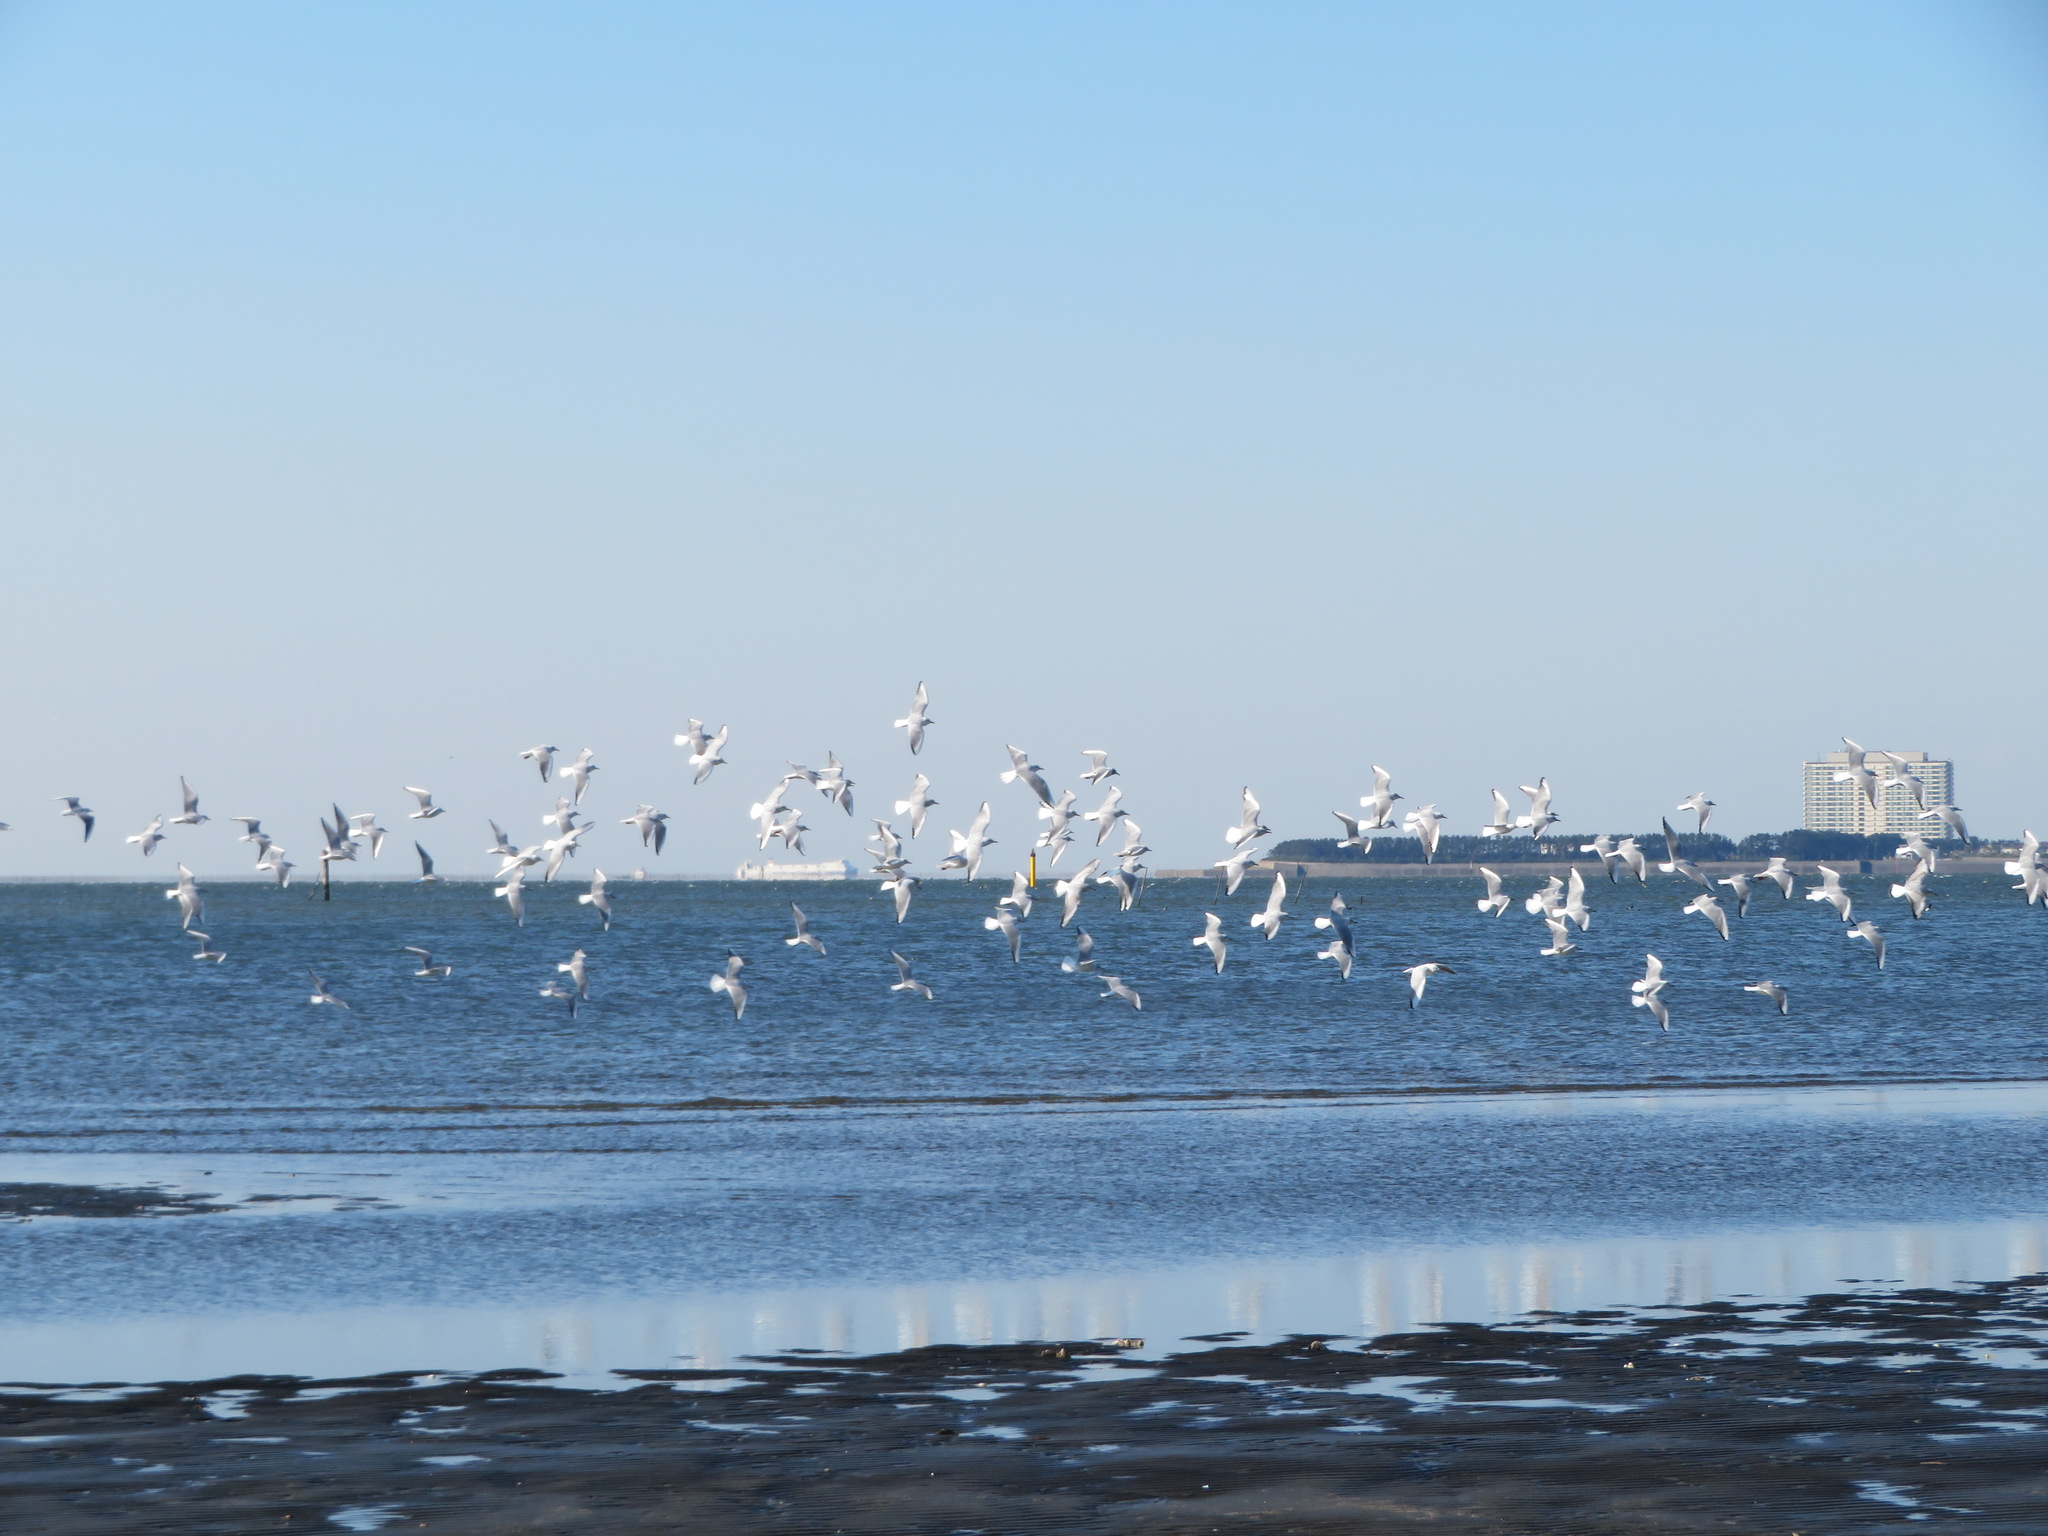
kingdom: Animalia
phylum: Chordata
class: Aves
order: Charadriiformes
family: Laridae
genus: Chroicocephalus
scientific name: Chroicocephalus ridibundus
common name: Black-headed gull
